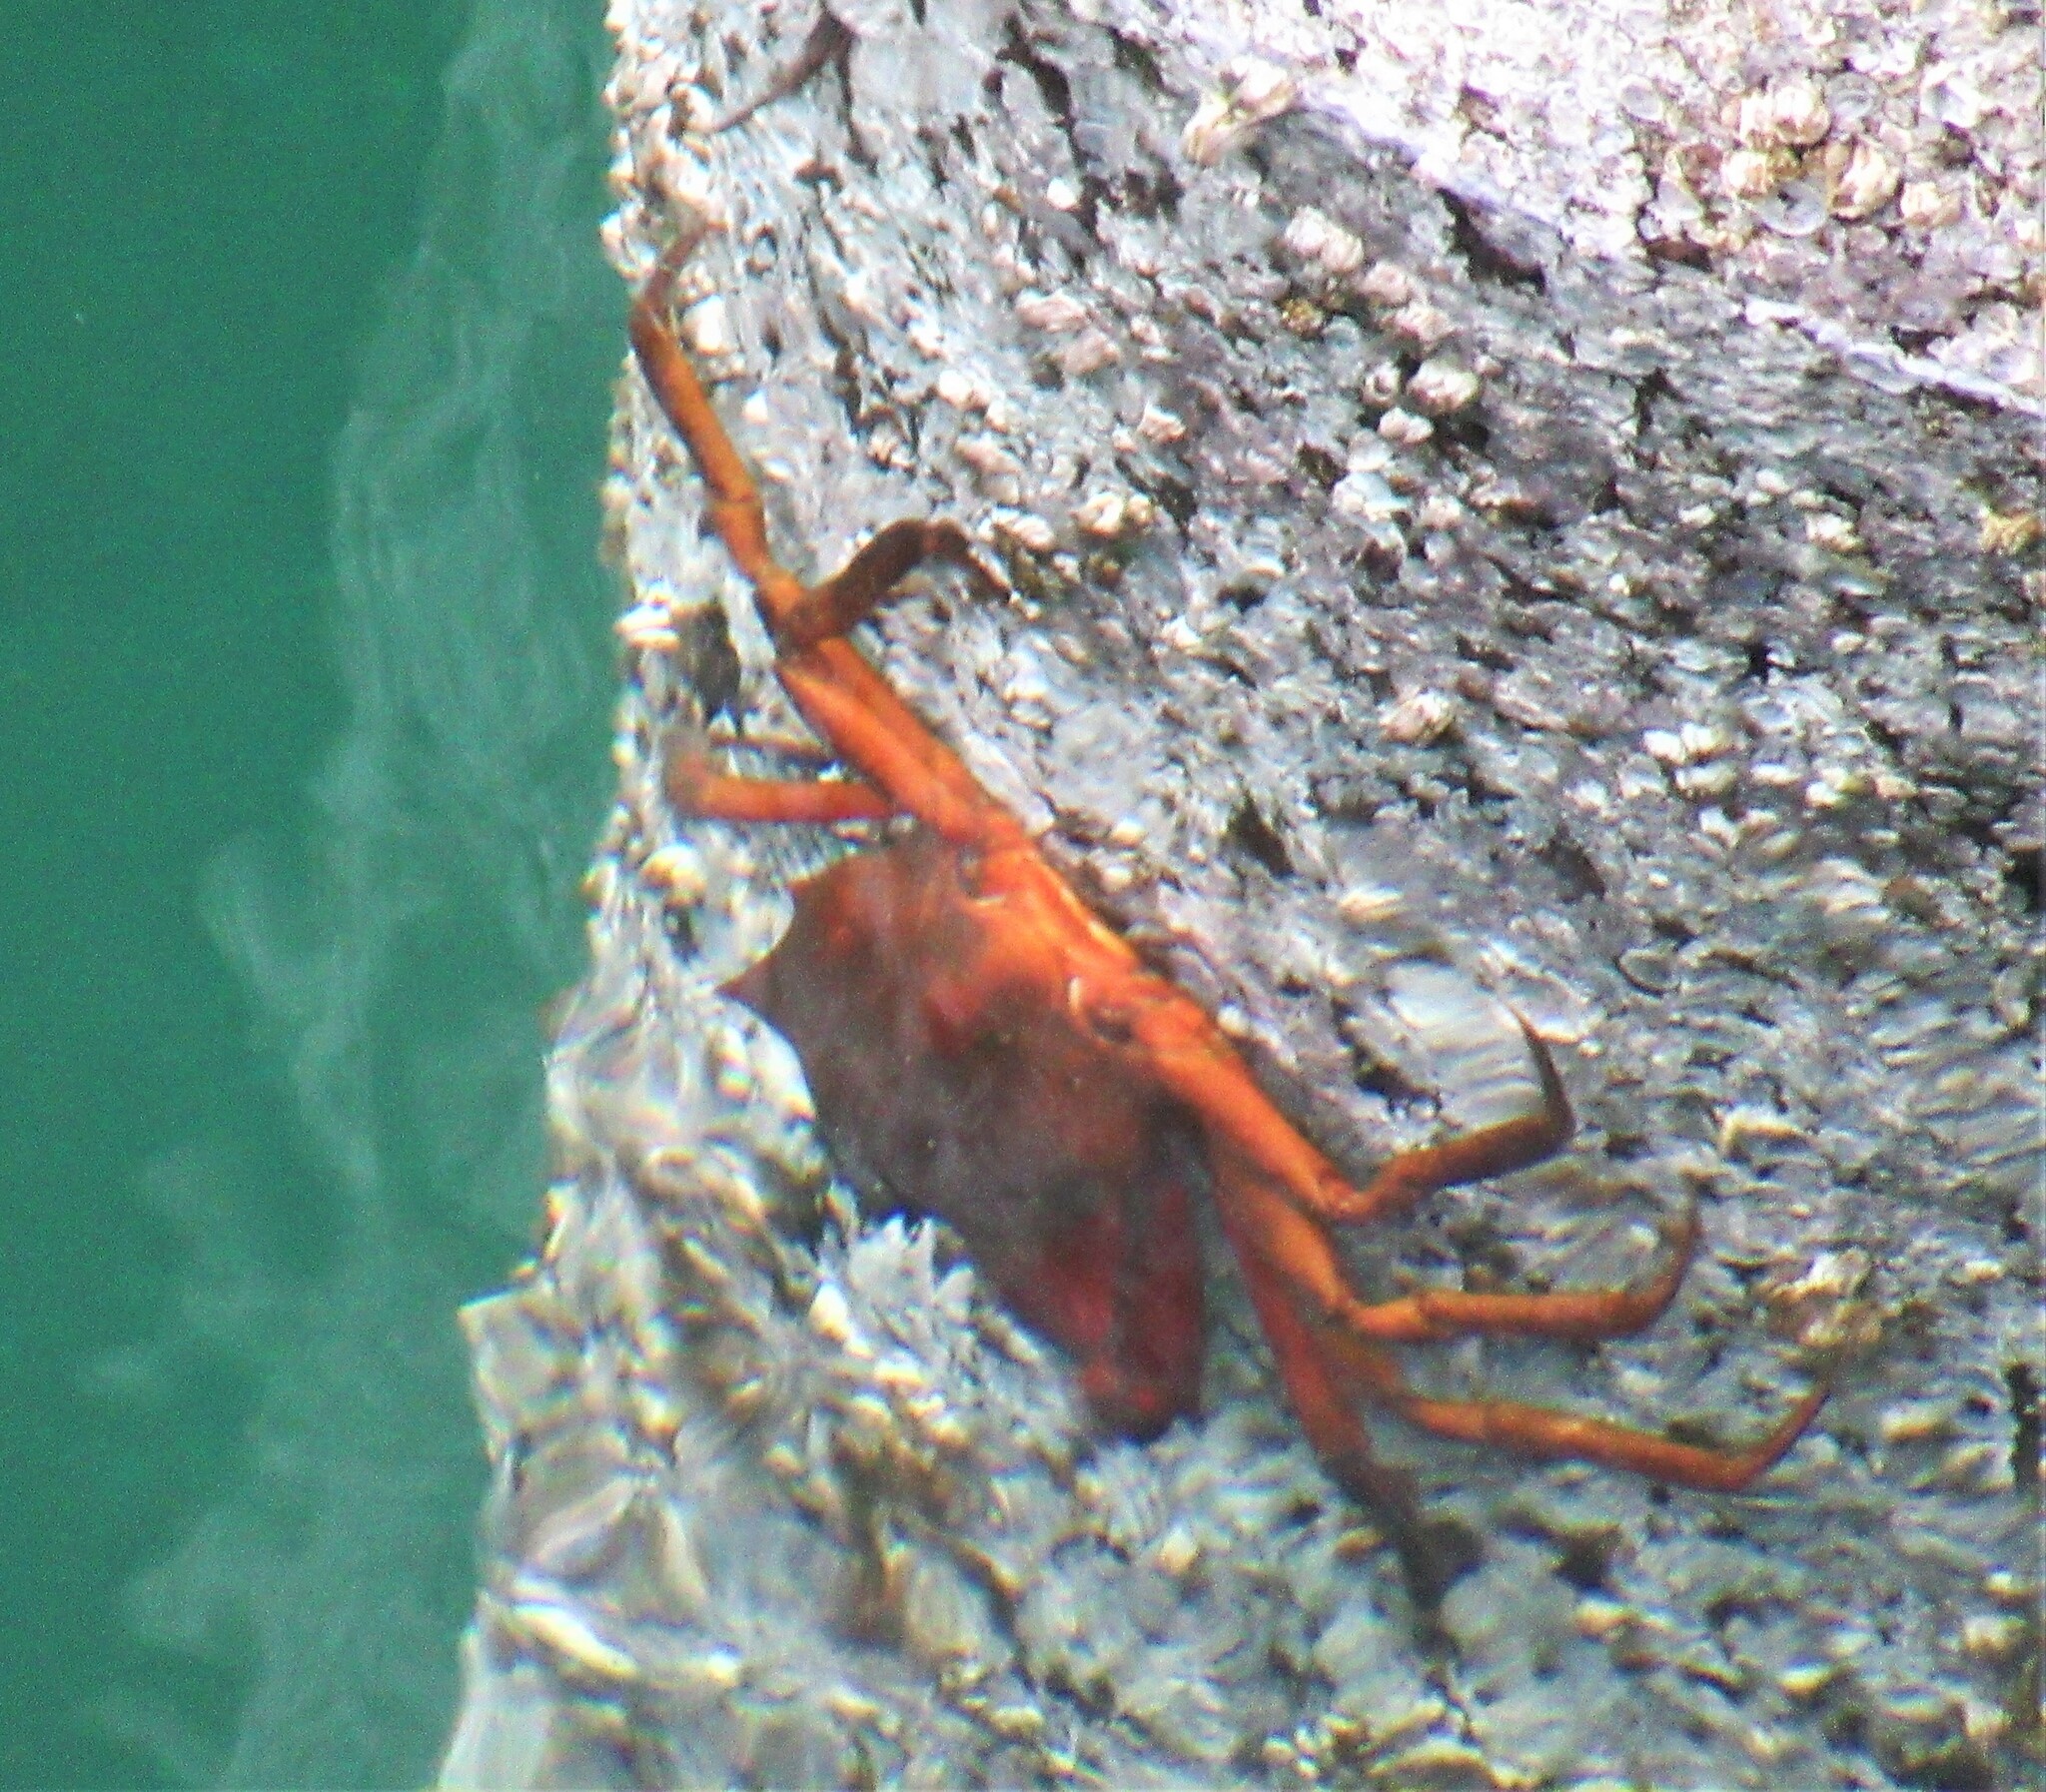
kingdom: Animalia
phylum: Arthropoda
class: Malacostraca
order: Decapoda
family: Epialtidae
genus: Pugettia
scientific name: Pugettia producta
